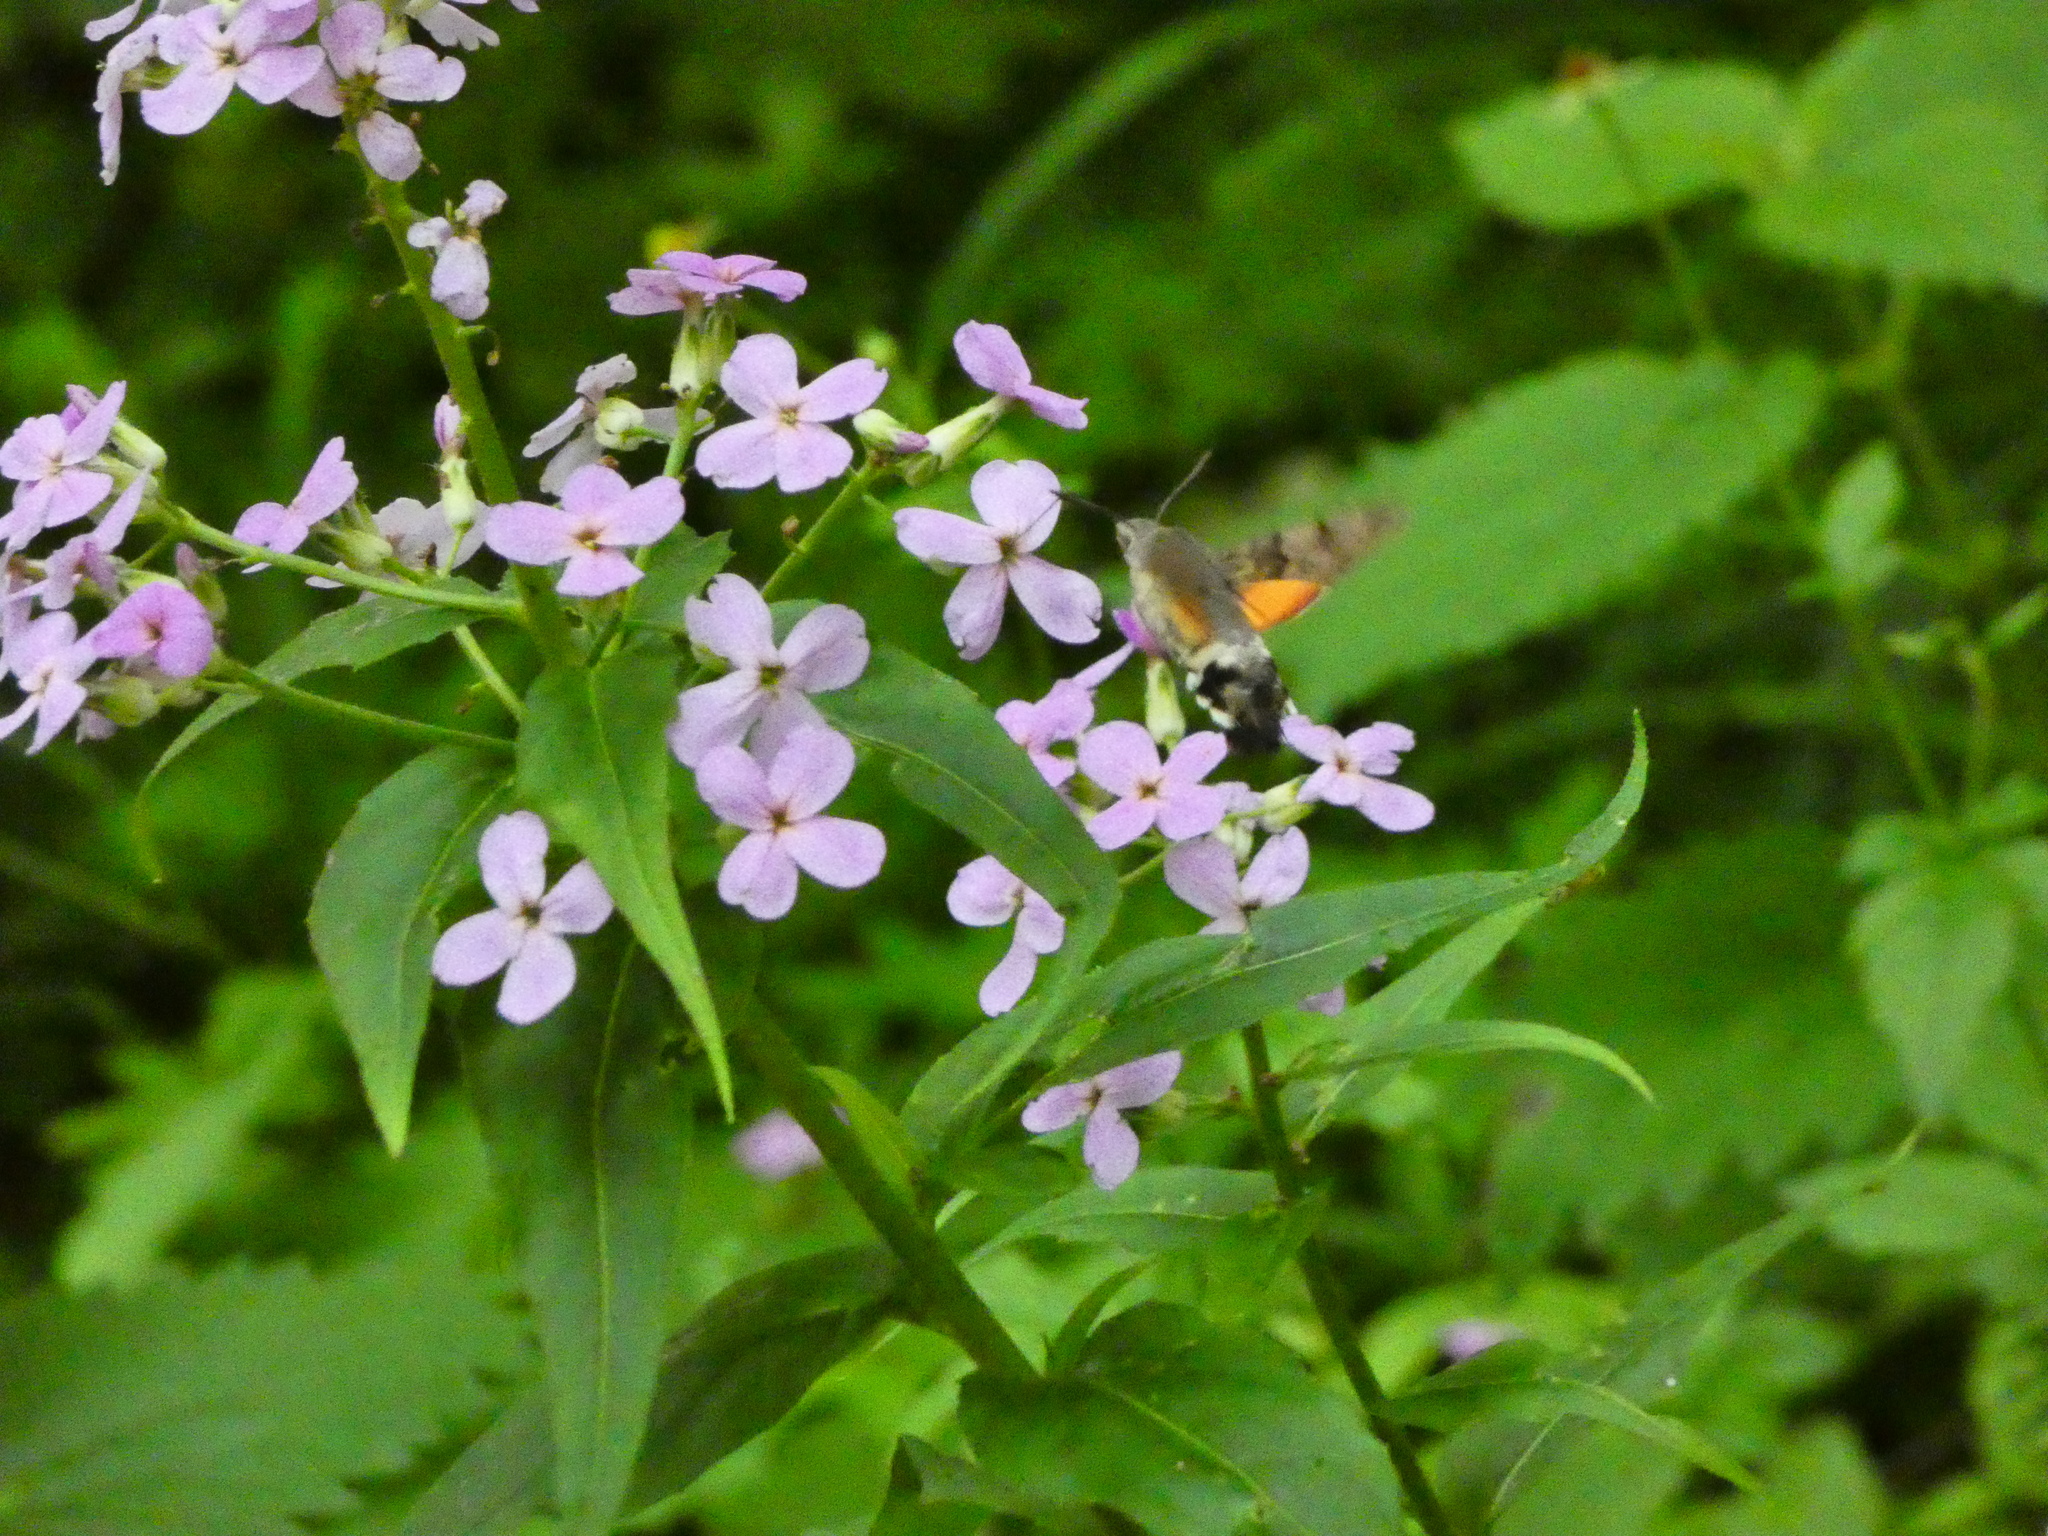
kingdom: Animalia
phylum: Arthropoda
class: Insecta
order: Lepidoptera
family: Sphingidae
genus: Macroglossum
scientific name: Macroglossum stellatarum
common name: Humming-bird hawk-moth
